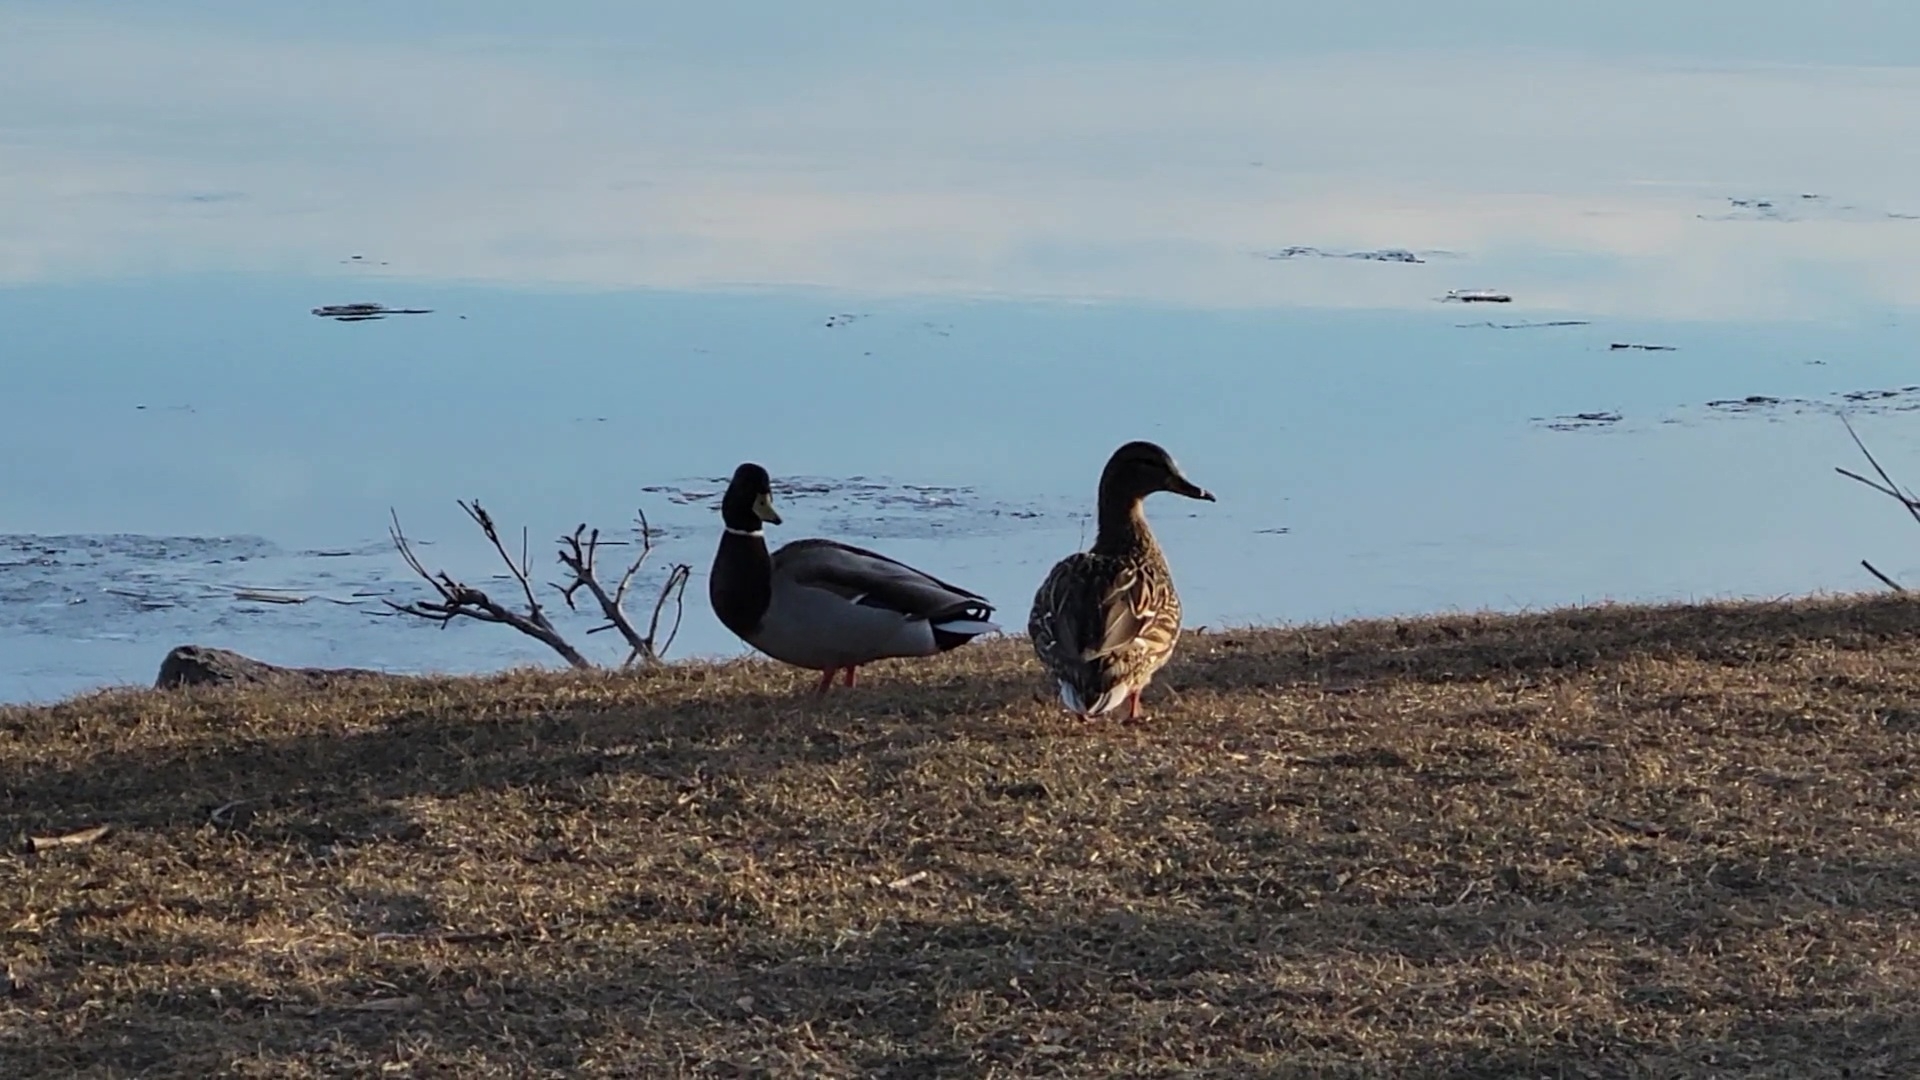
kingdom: Animalia
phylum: Chordata
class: Aves
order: Anseriformes
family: Anatidae
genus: Anas
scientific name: Anas platyrhynchos
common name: Mallard
